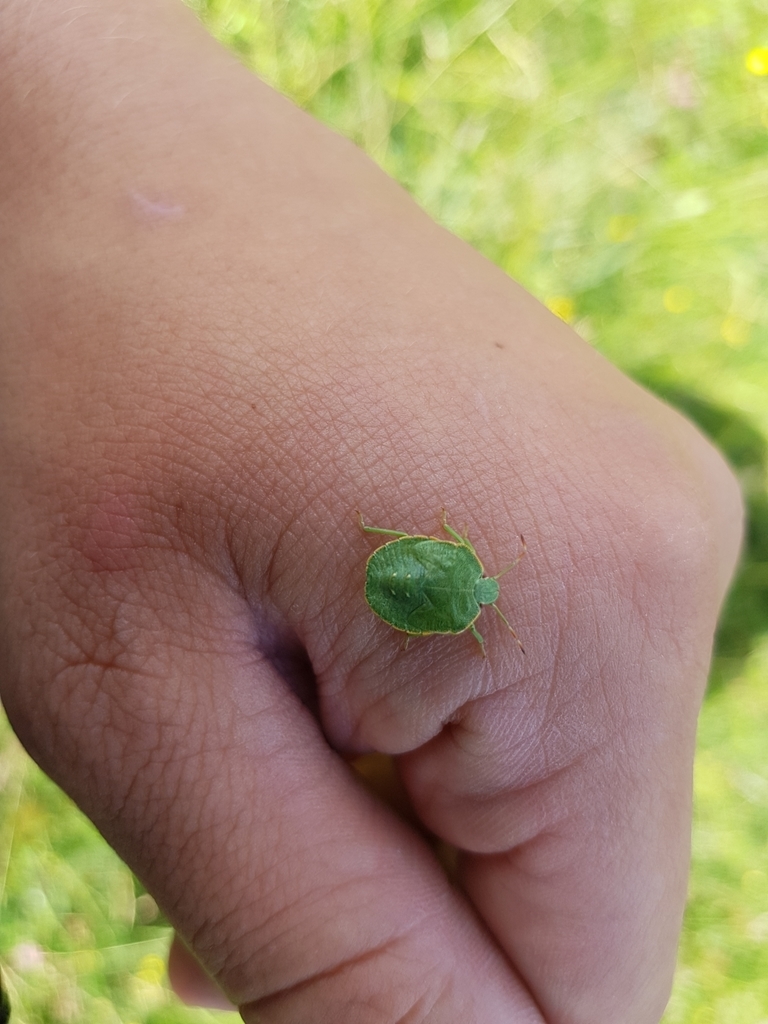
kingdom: Animalia
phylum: Arthropoda
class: Insecta
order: Hemiptera
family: Pentatomidae
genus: Palomena
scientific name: Palomena prasina
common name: Green shieldbug
